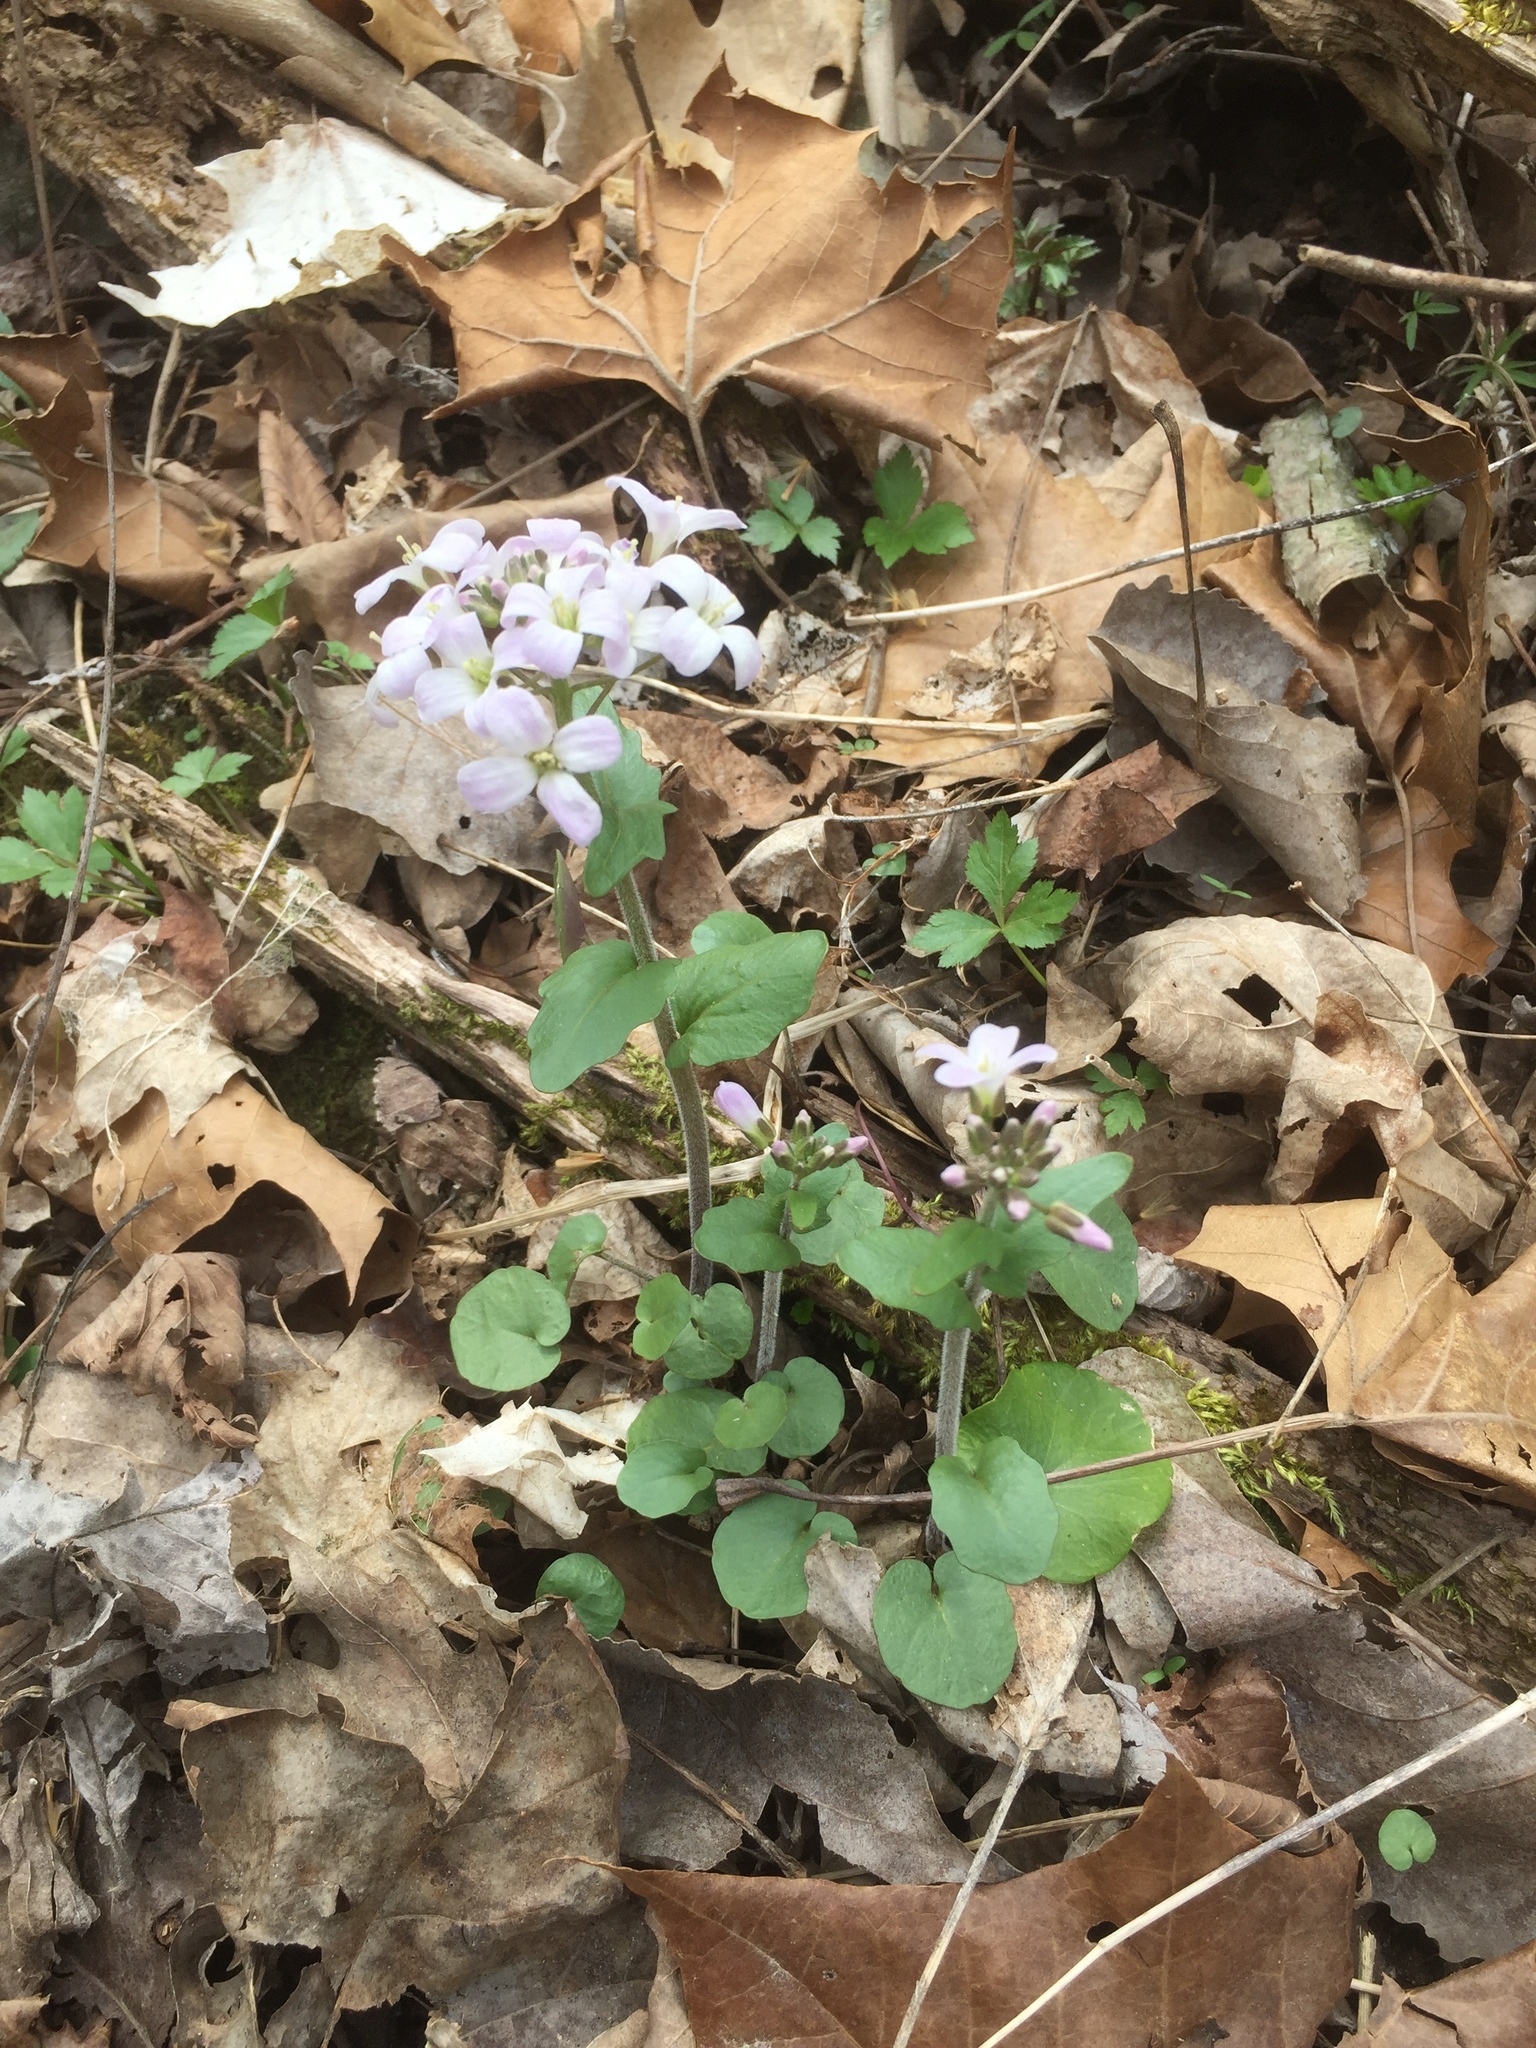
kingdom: Plantae
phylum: Tracheophyta
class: Magnoliopsida
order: Brassicales
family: Brassicaceae
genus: Cardamine
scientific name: Cardamine douglassii
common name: Purple cress
